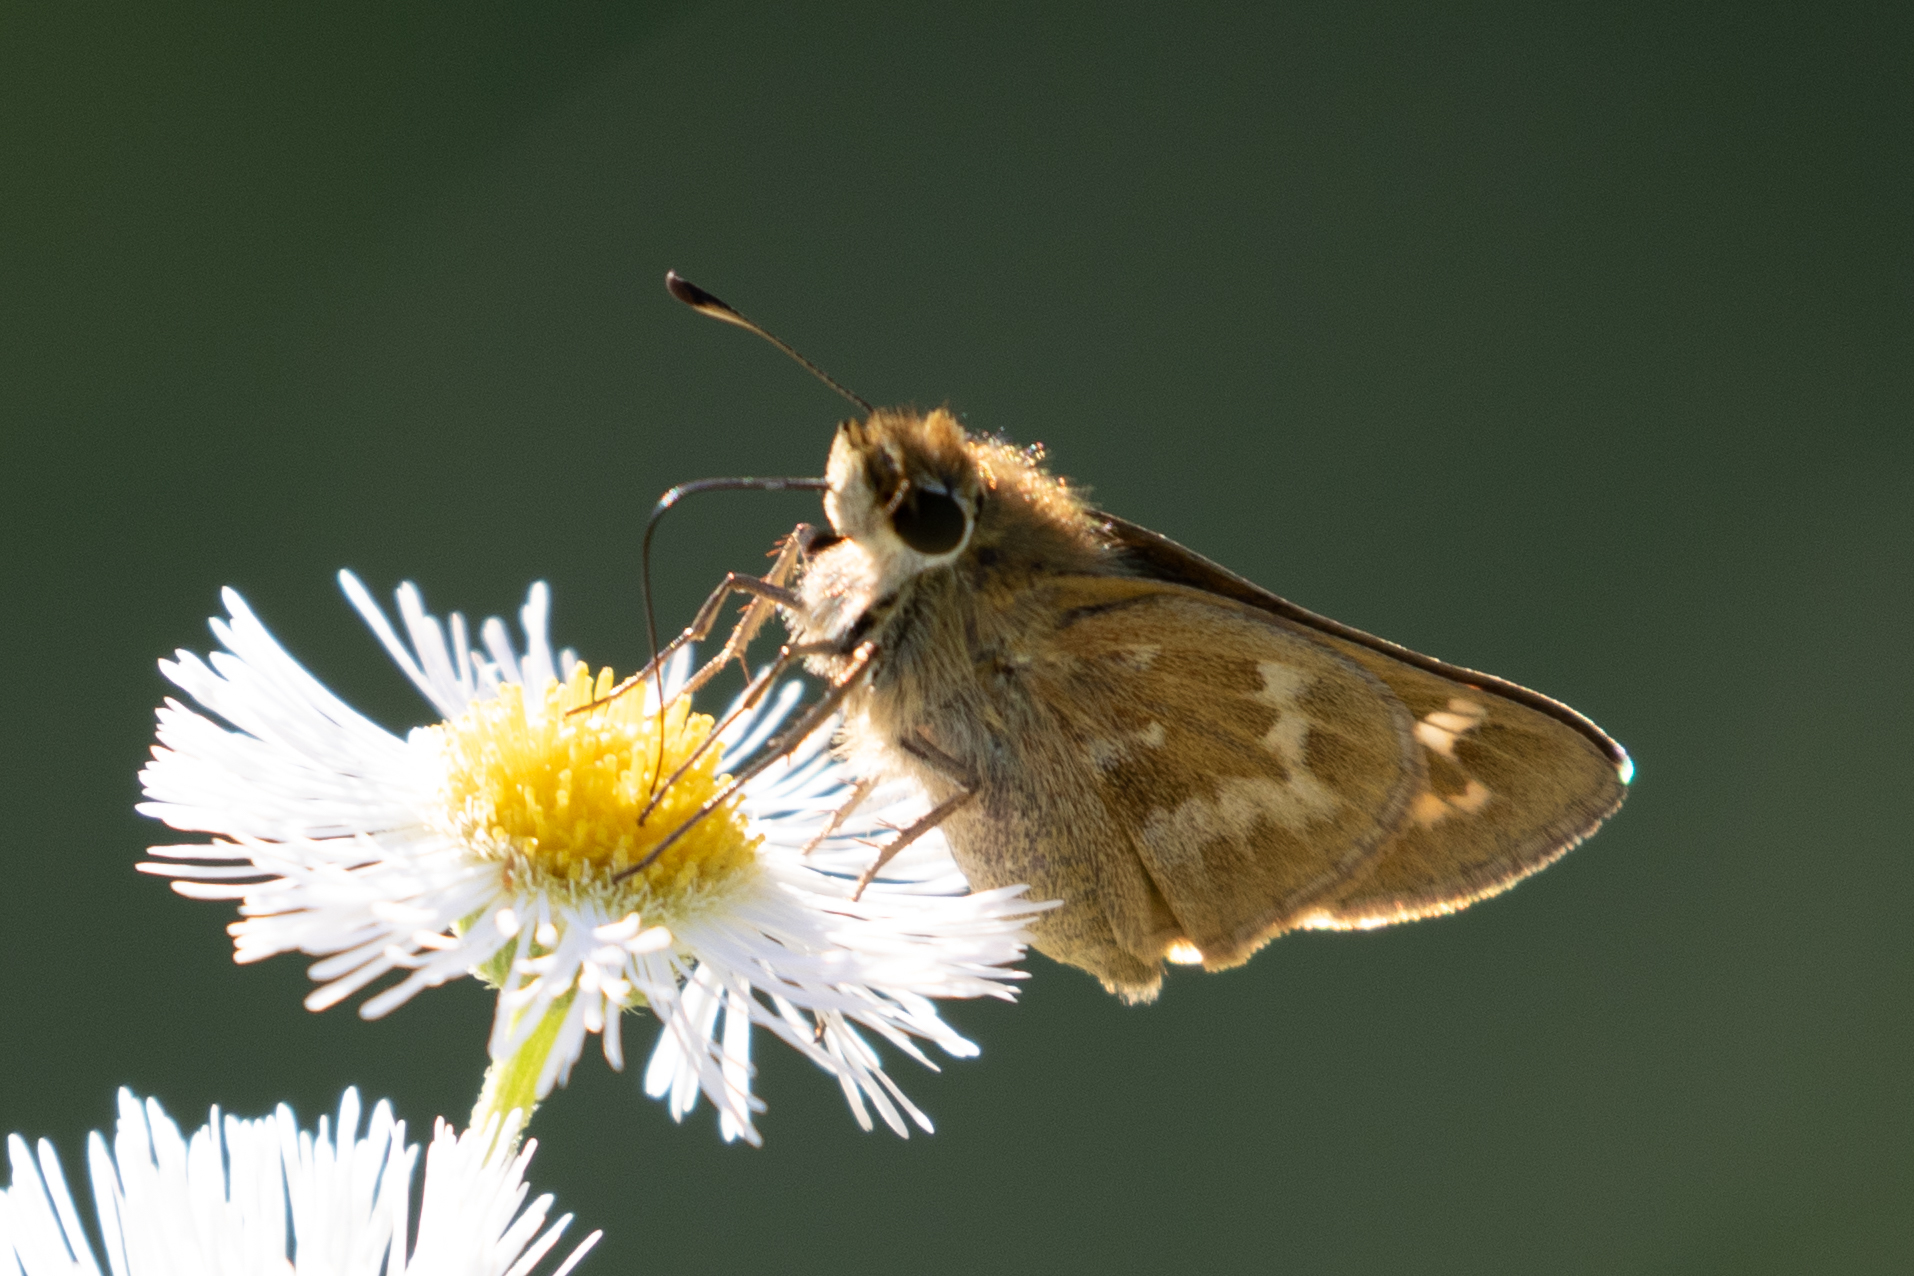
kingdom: Animalia
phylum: Arthropoda
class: Insecta
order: Lepidoptera
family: Hesperiidae
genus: Atalopedes
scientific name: Atalopedes
